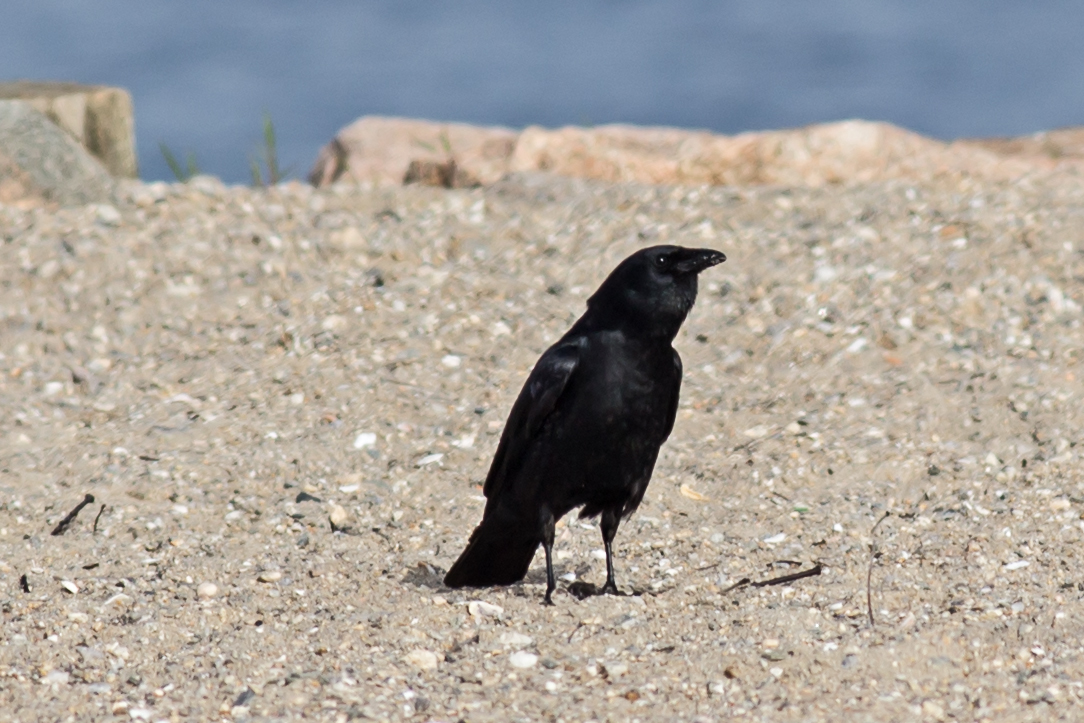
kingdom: Animalia
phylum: Chordata
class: Aves
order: Passeriformes
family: Corvidae
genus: Corvus
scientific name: Corvus ossifragus
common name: Fish crow
